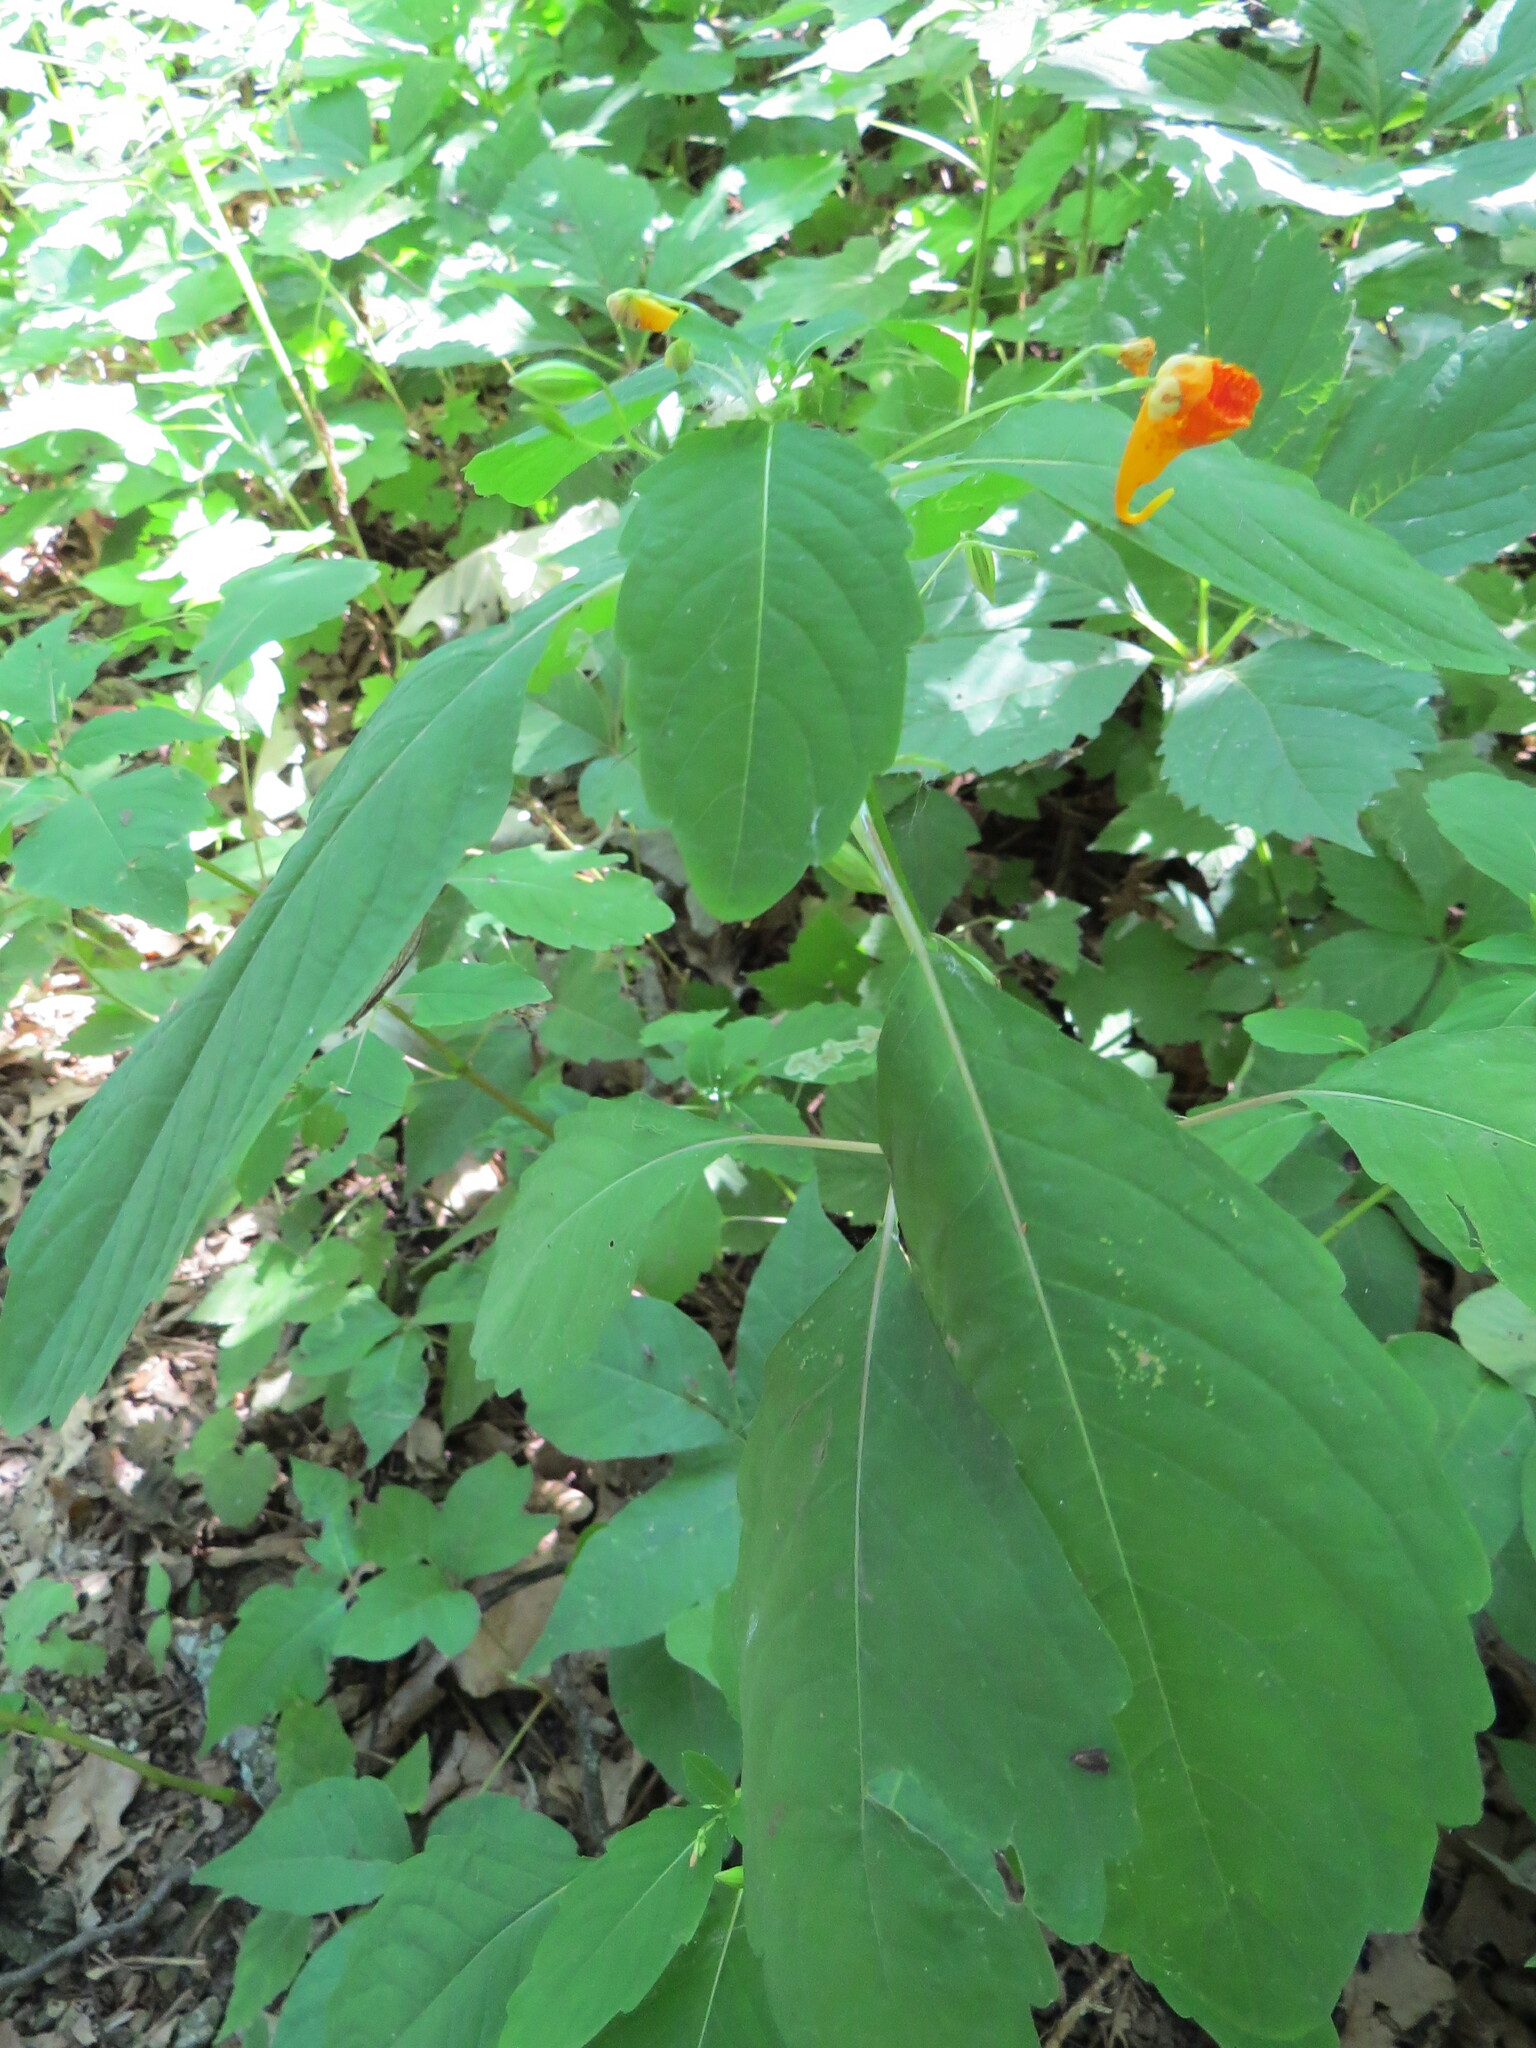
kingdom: Plantae
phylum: Tracheophyta
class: Magnoliopsida
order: Ericales
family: Balsaminaceae
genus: Impatiens
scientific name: Impatiens capensis
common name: Orange balsam
